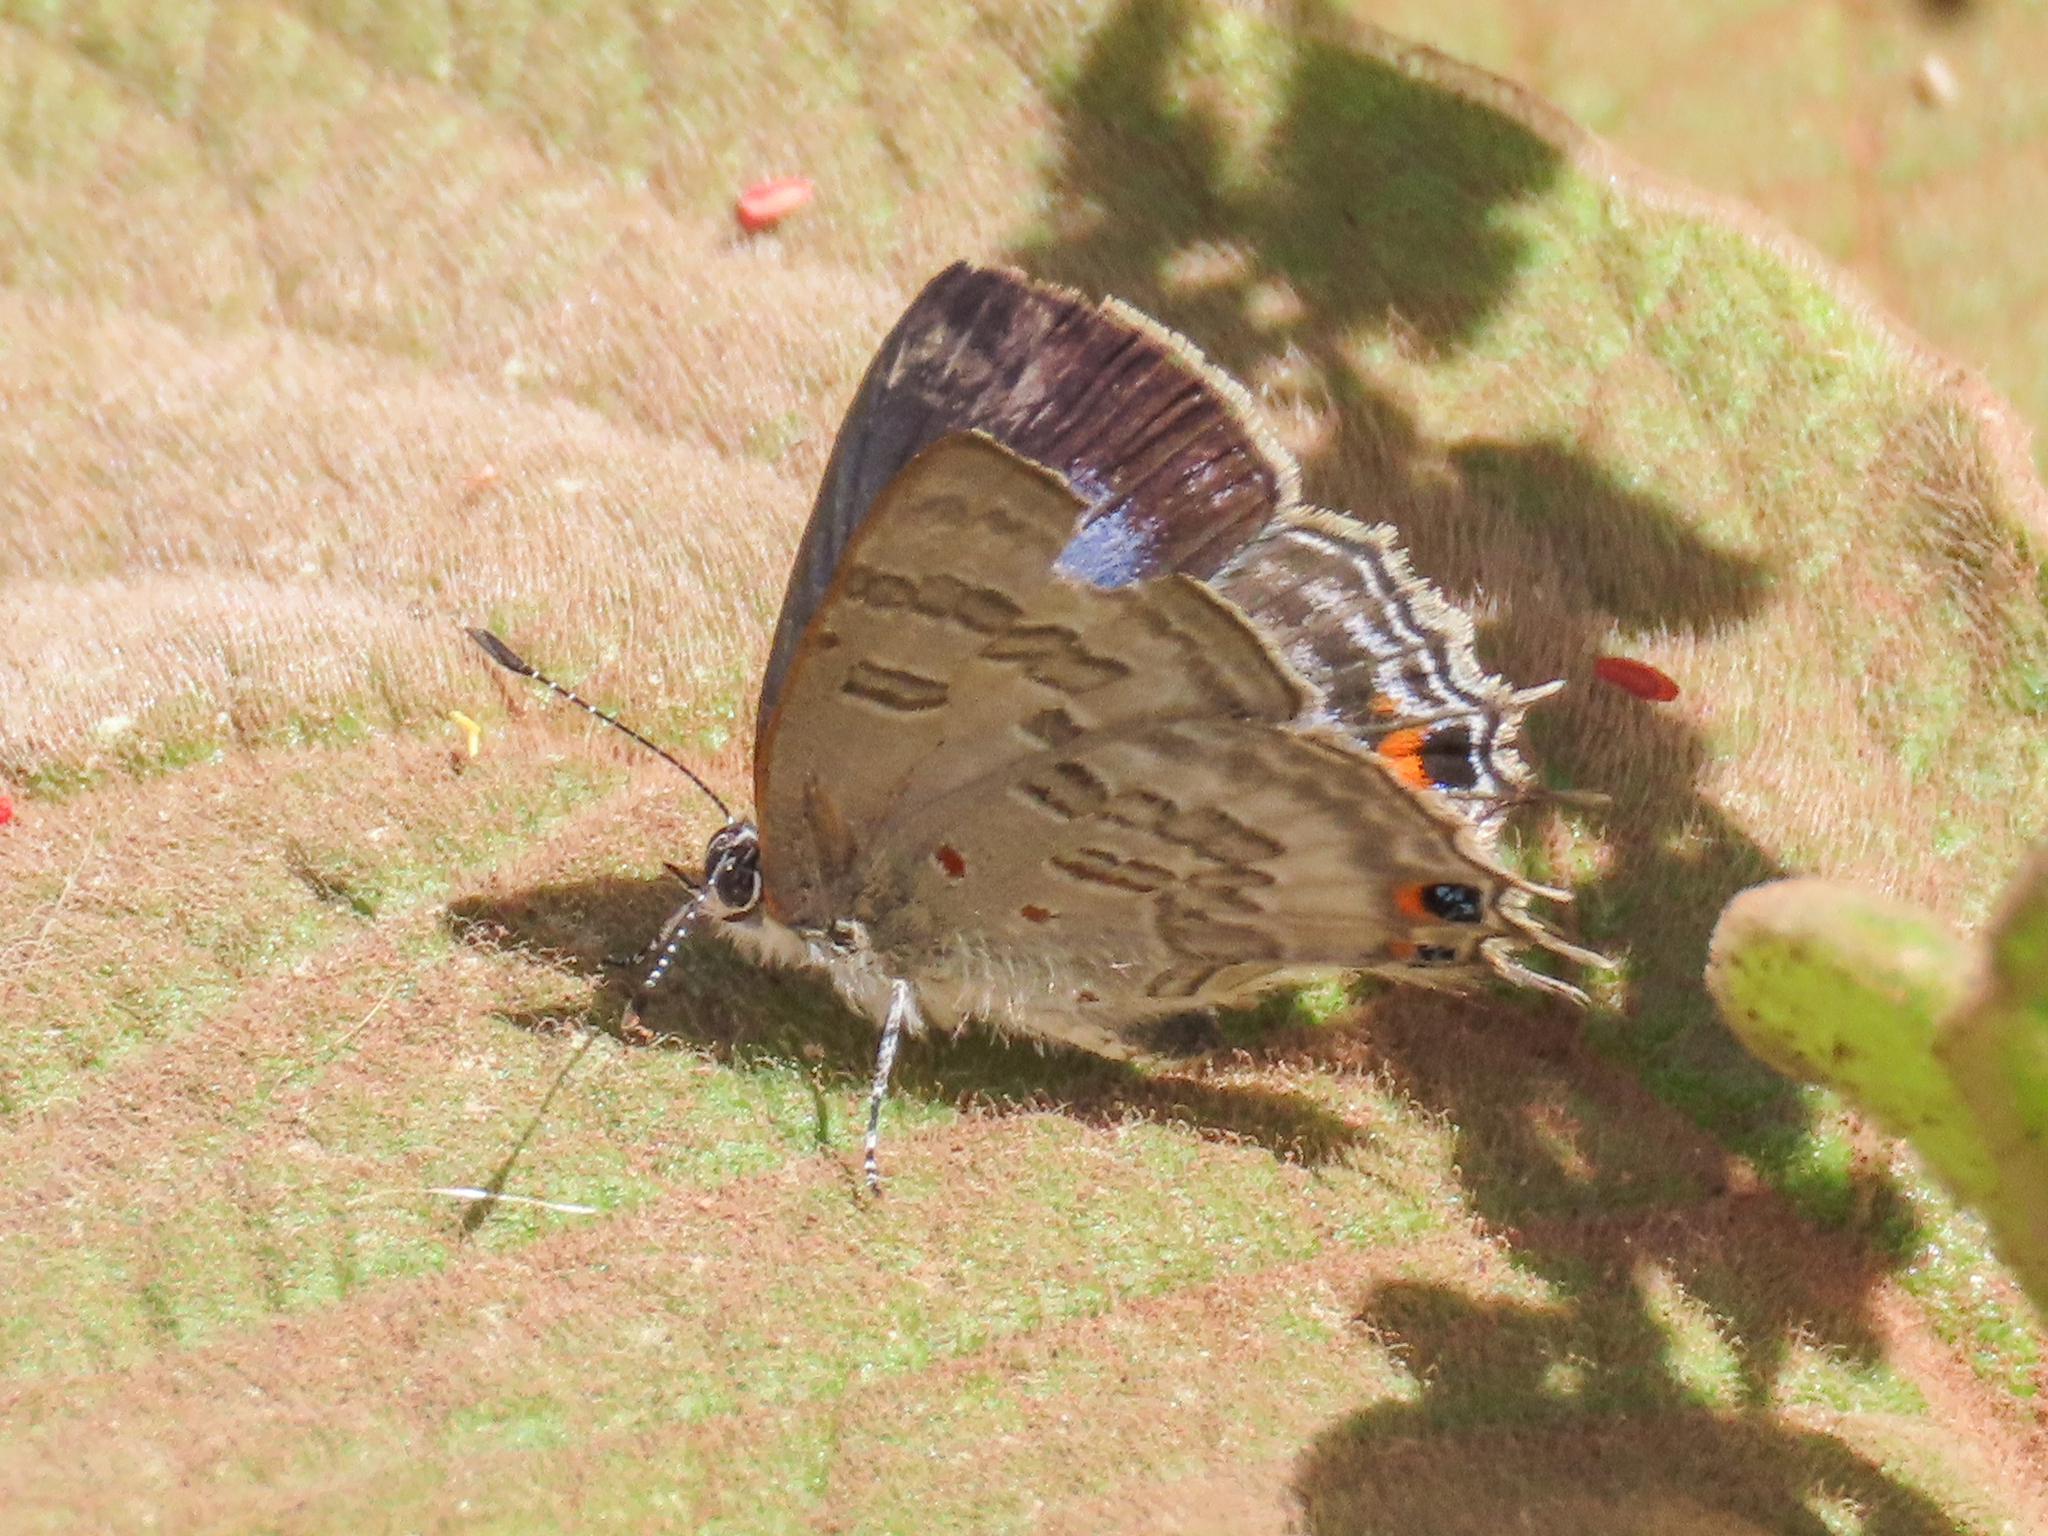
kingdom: Animalia
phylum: Arthropoda
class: Insecta
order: Lepidoptera
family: Lycaenidae
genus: Anthene
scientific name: Anthene hobleyi
